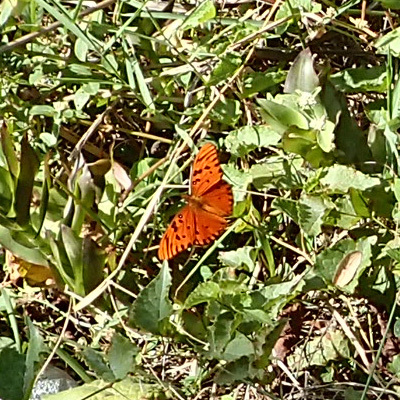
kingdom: Animalia
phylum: Arthropoda
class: Insecta
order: Lepidoptera
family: Nymphalidae
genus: Dione
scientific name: Dione vanillae
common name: Gulf fritillary
